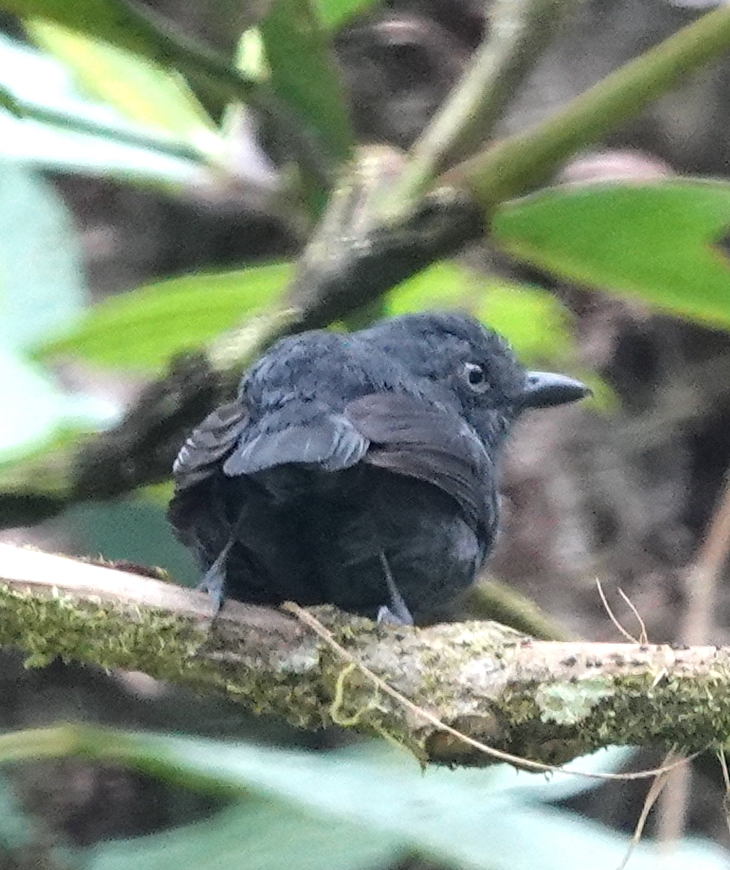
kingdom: Animalia
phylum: Chordata
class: Aves
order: Passeriformes
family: Thamnophilidae
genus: Thamnophilus
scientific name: Thamnophilus unicolor
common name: Uniform antshrike
